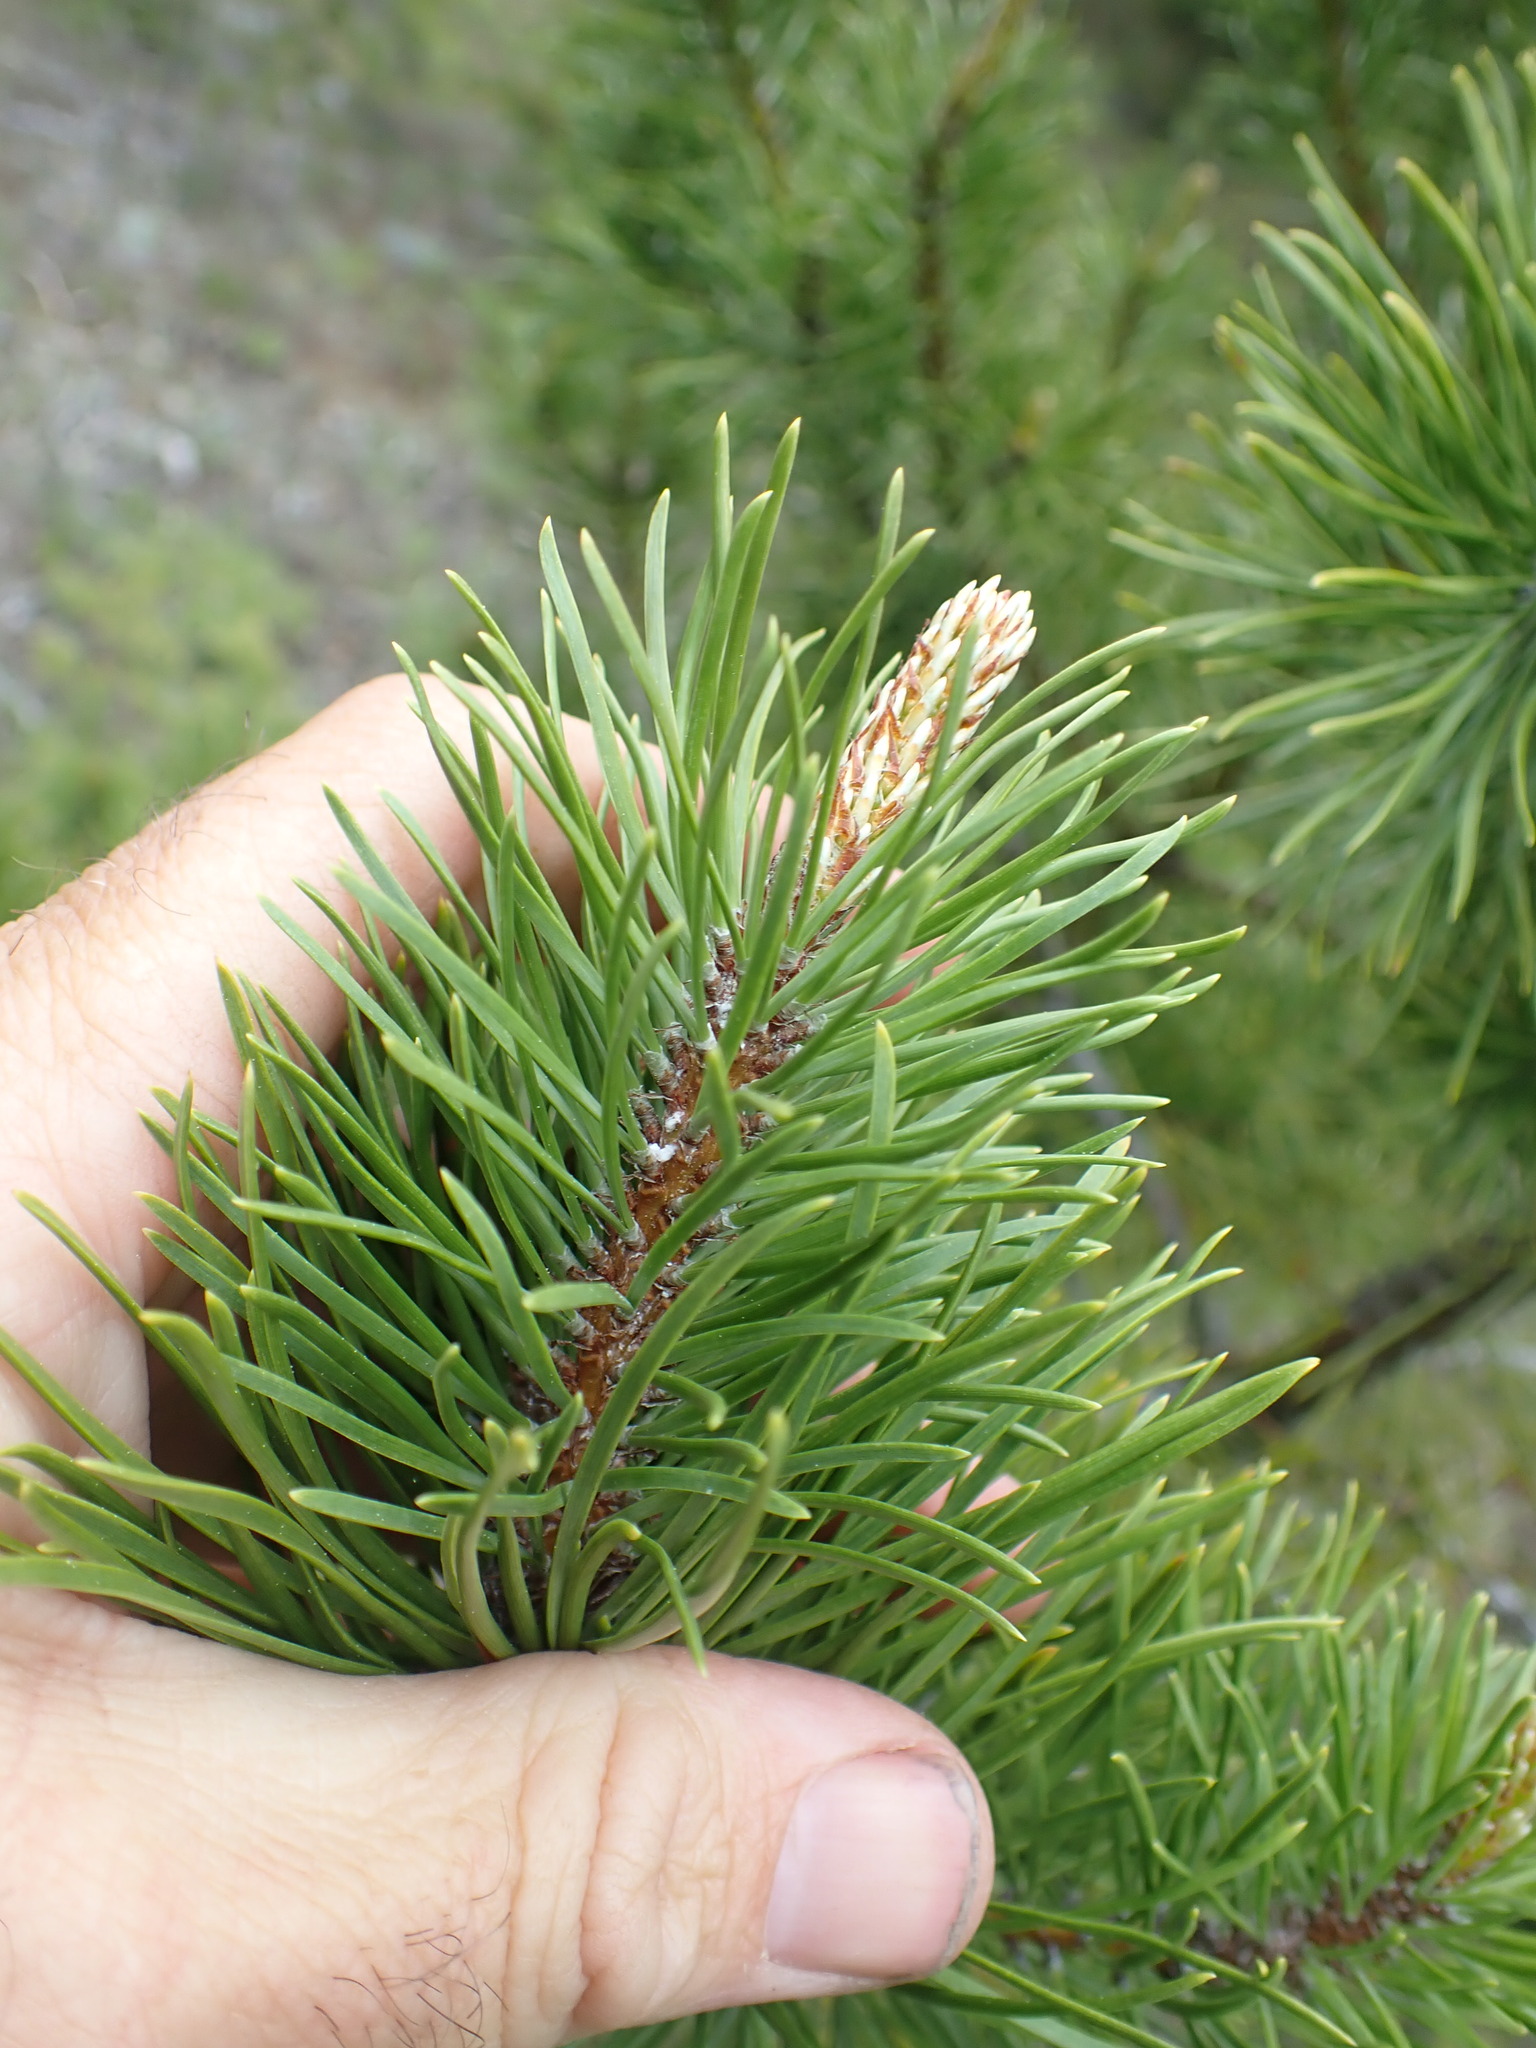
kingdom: Plantae
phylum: Tracheophyta
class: Pinopsida
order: Pinales
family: Pinaceae
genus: Pinus
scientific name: Pinus contorta
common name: Lodgepole pine
